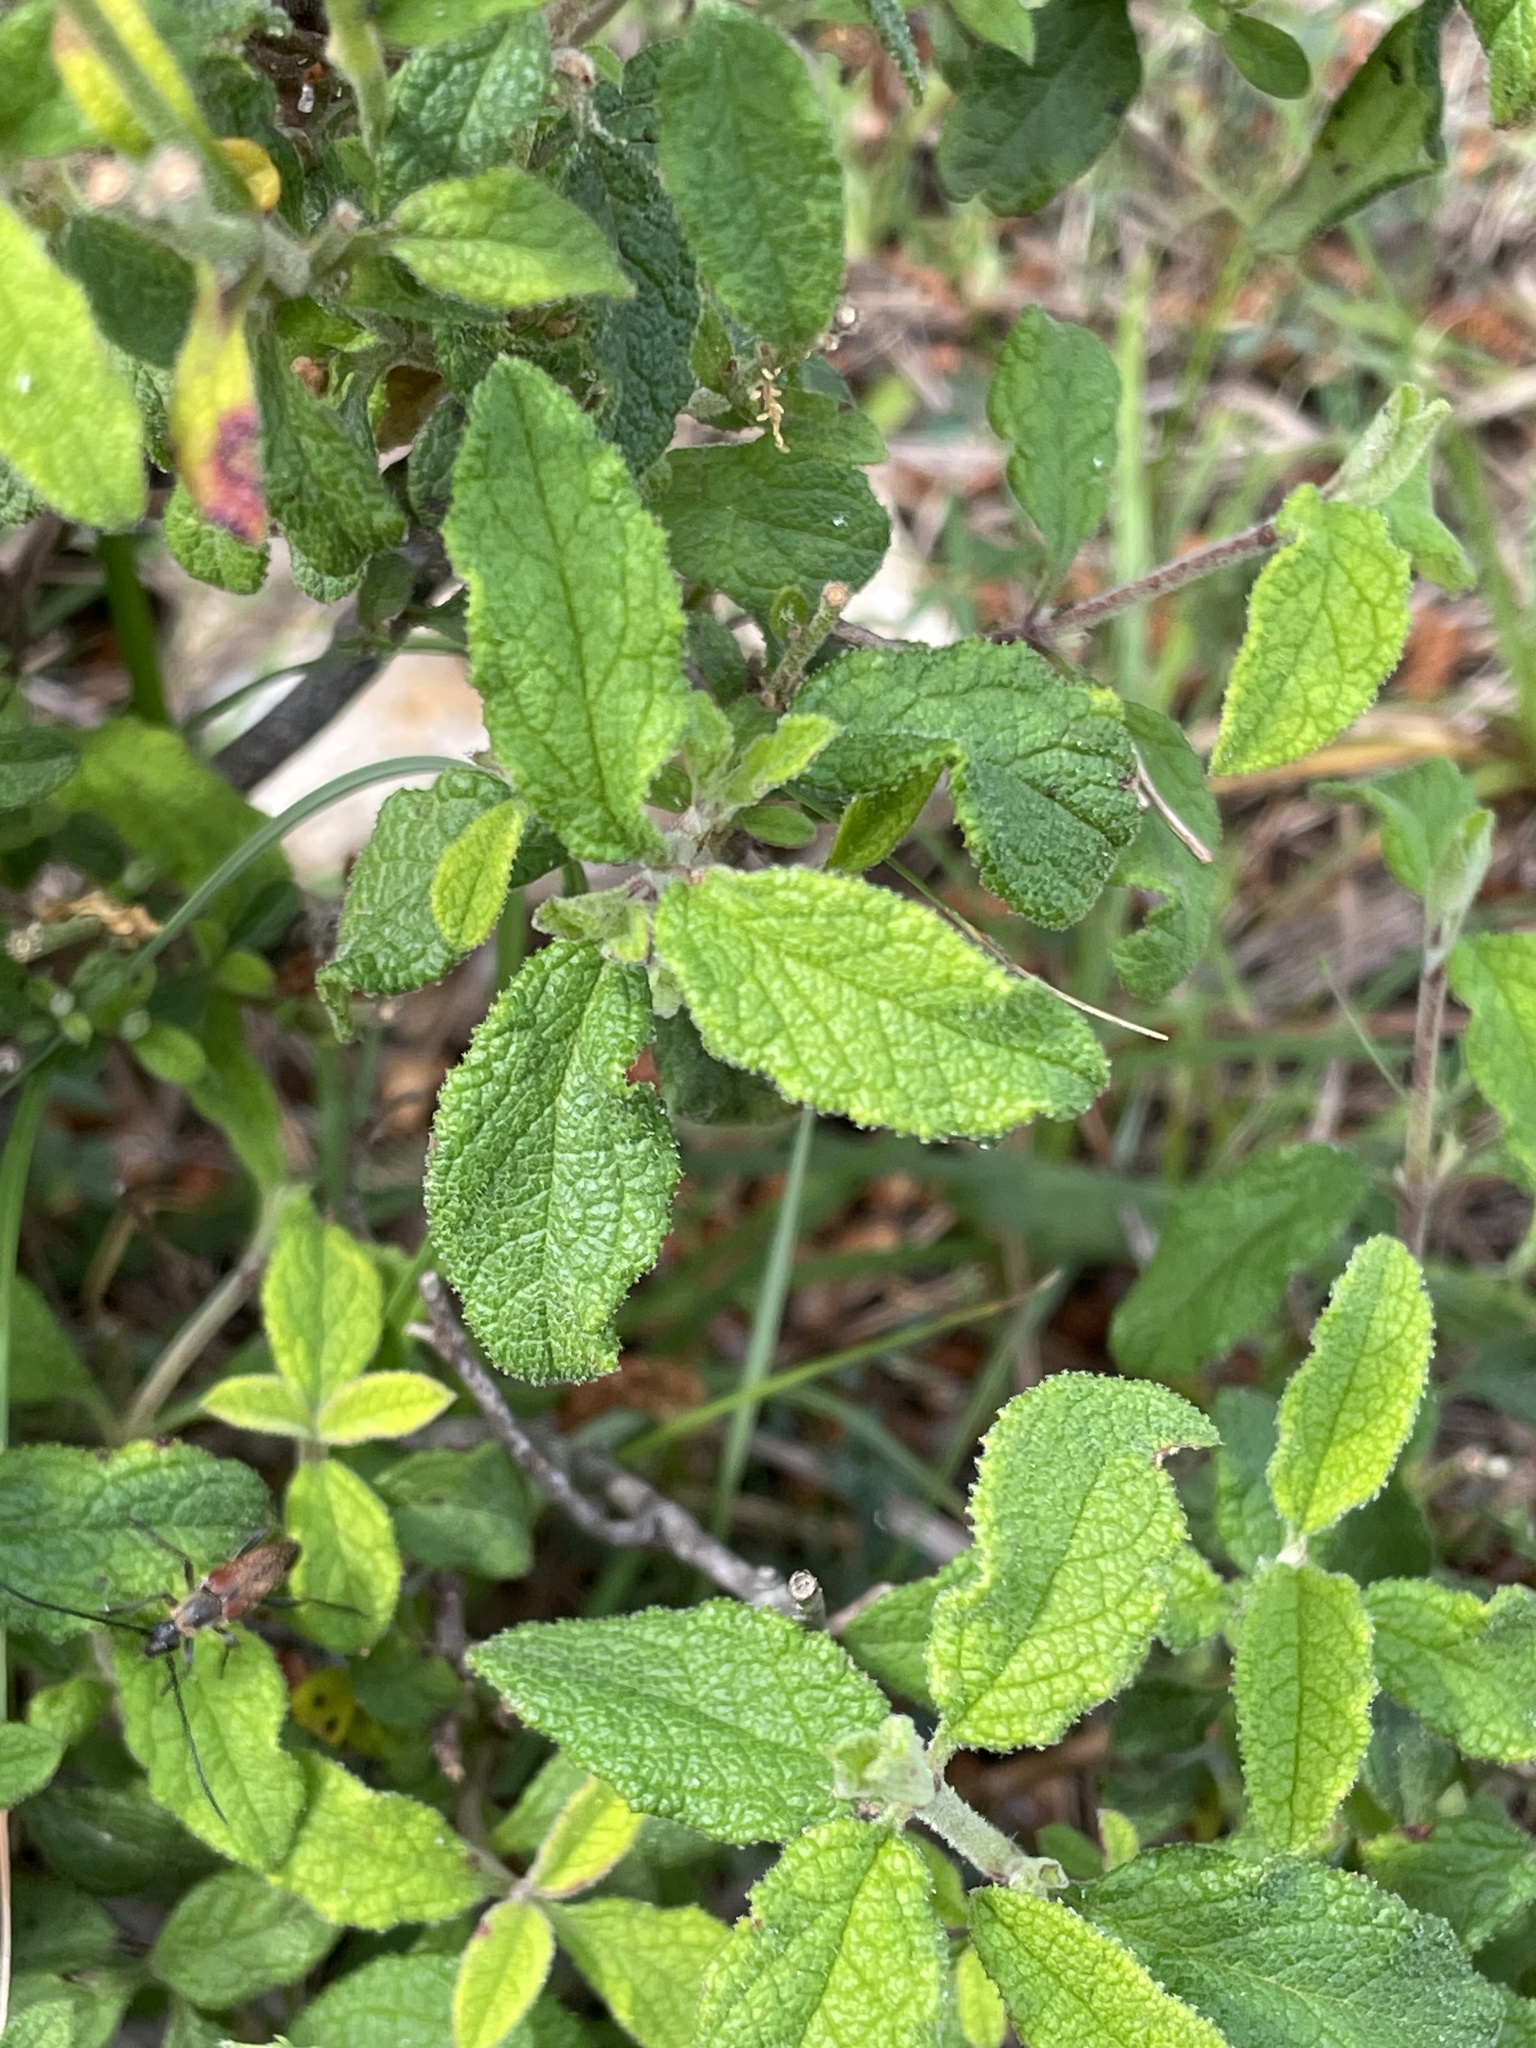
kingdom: Plantae
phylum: Tracheophyta
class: Magnoliopsida
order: Malvales
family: Cistaceae
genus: Cistus
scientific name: Cistus salviifolius
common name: Salvia cistus
